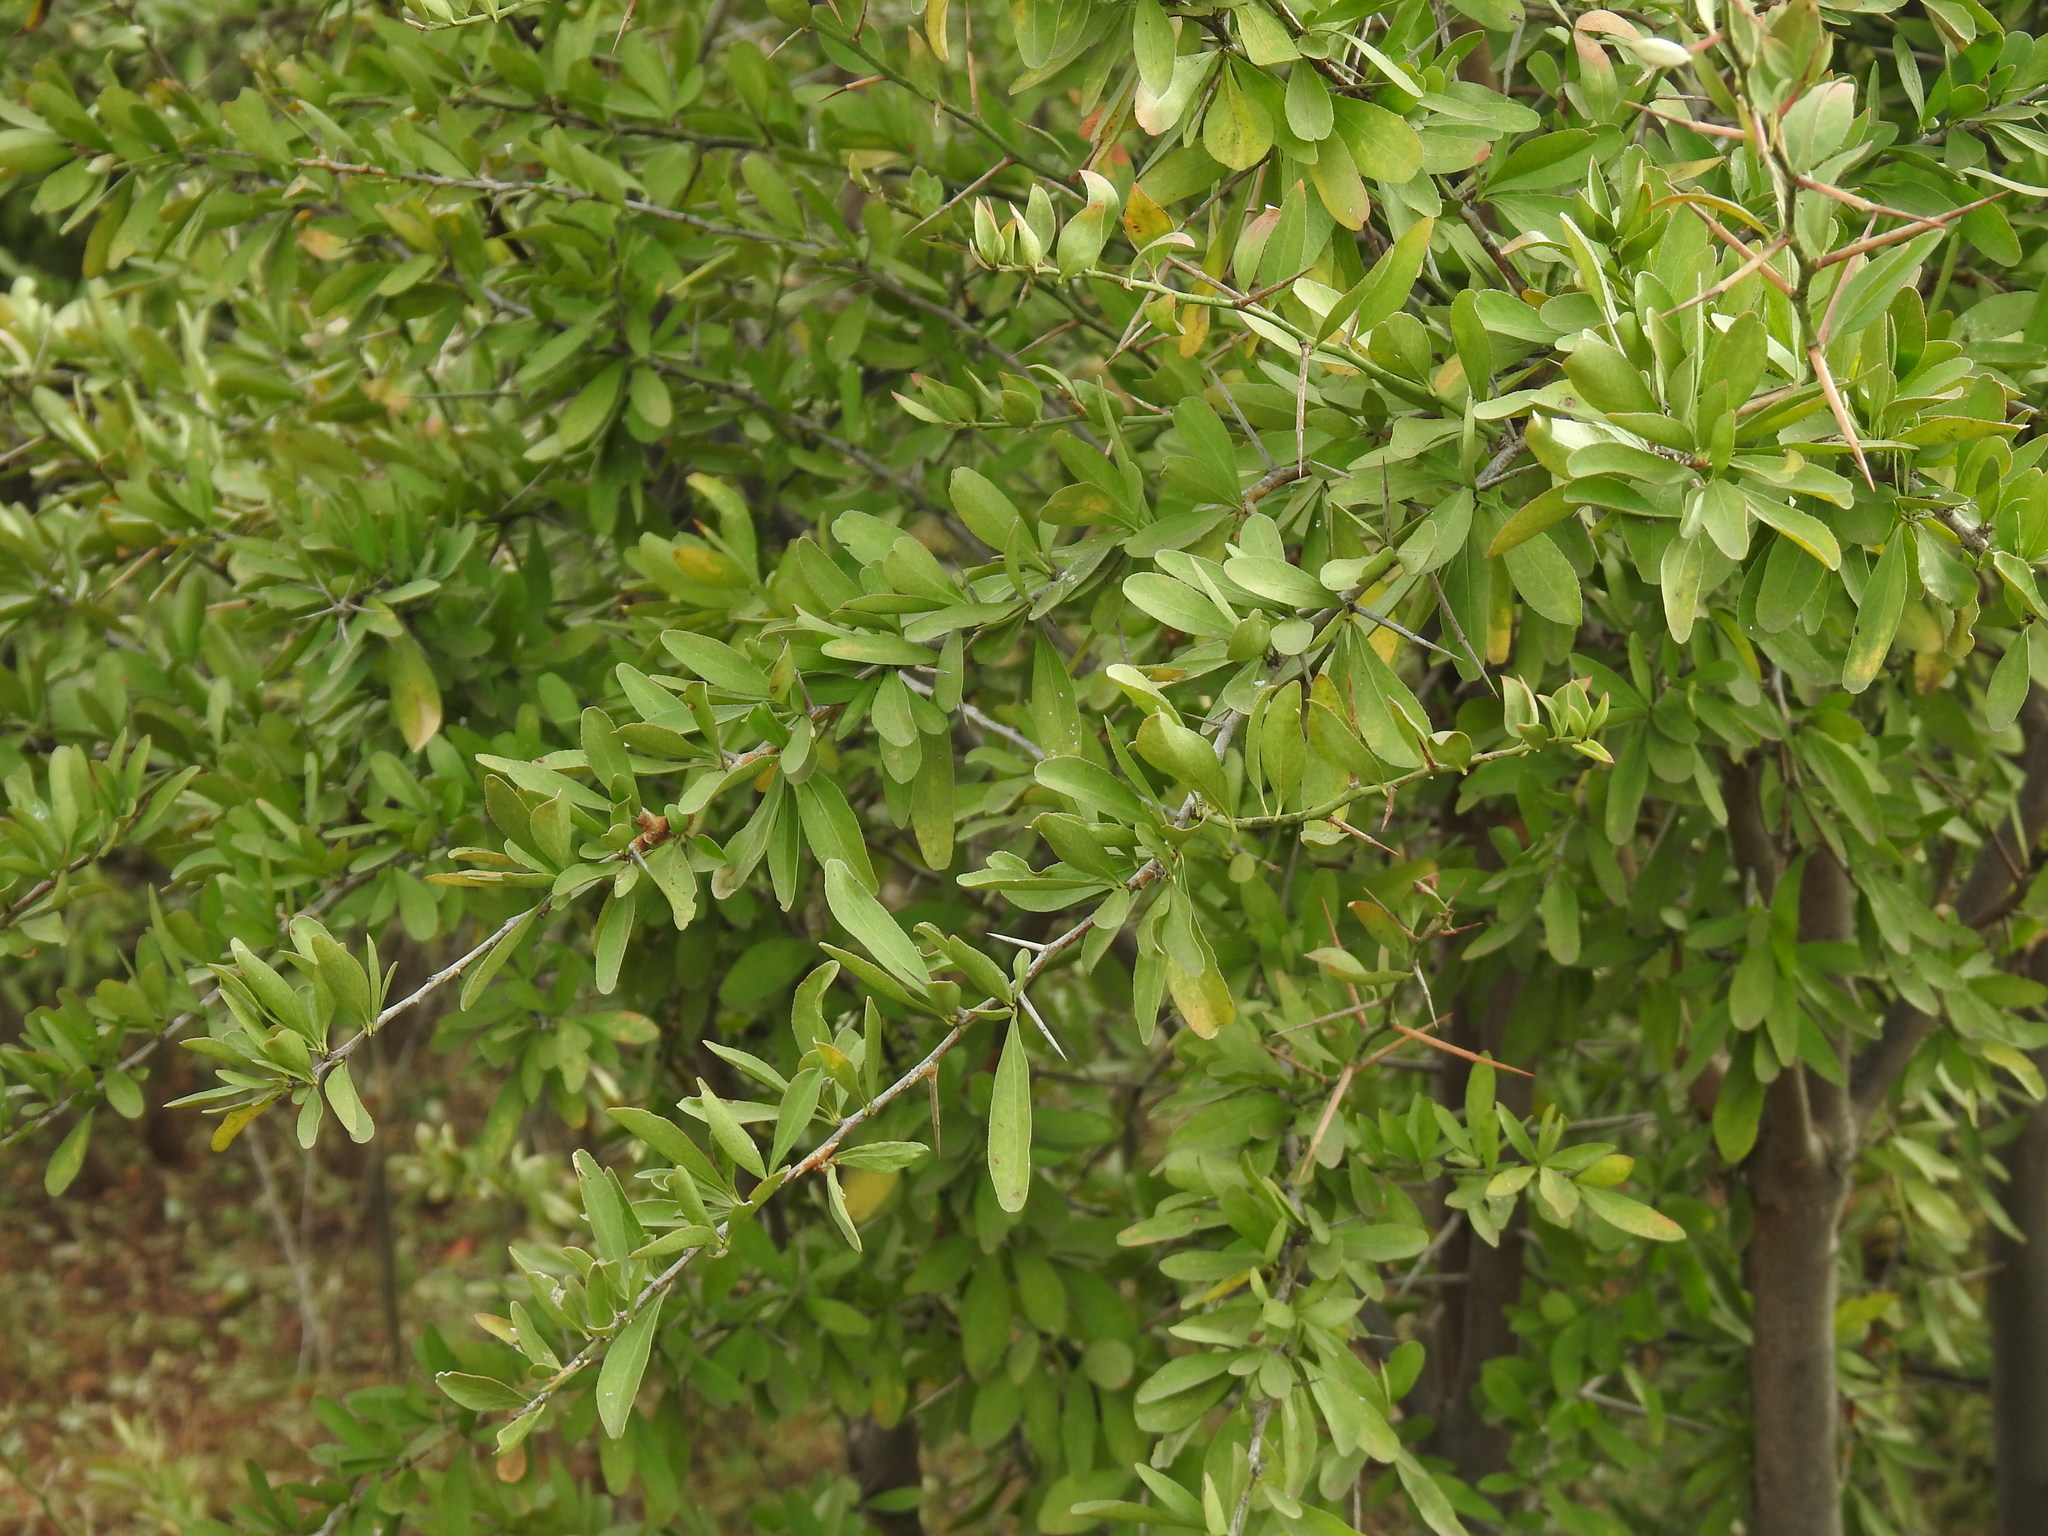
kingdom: Plantae
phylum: Tracheophyta
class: Magnoliopsida
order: Celastrales
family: Celastraceae
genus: Gymnosporia
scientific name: Gymnosporia buxifolia
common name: Common spike-thorn
